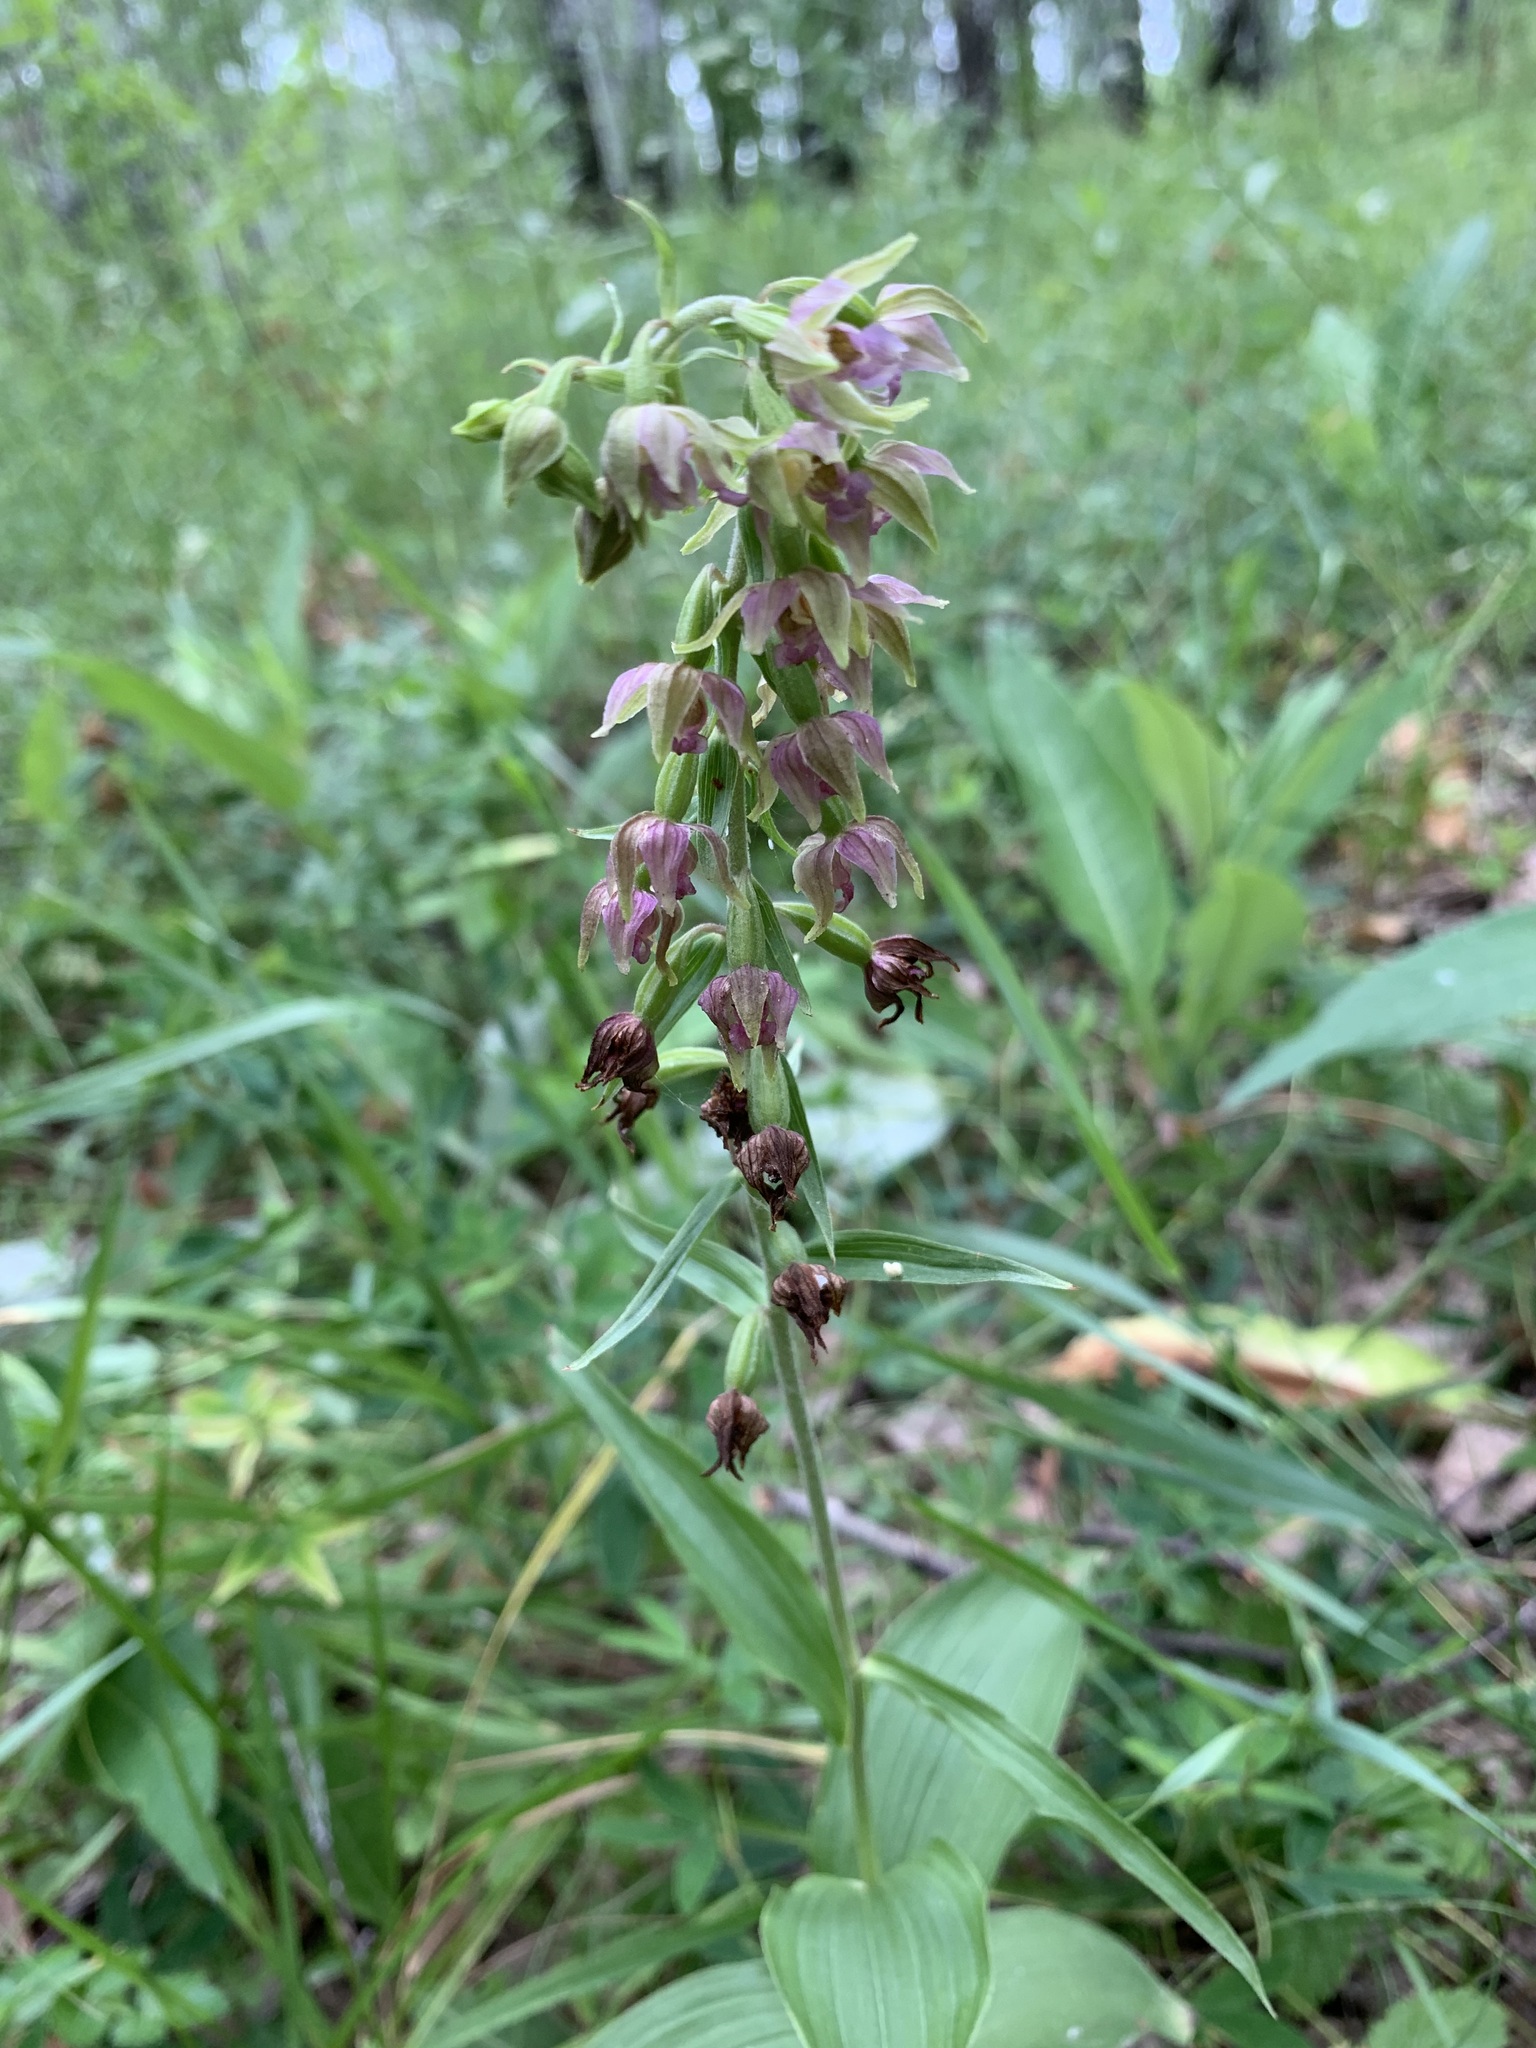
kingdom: Plantae
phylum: Tracheophyta
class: Liliopsida
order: Asparagales
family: Orchidaceae
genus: Epipactis
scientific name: Epipactis helleborine
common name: Broad-leaved helleborine
